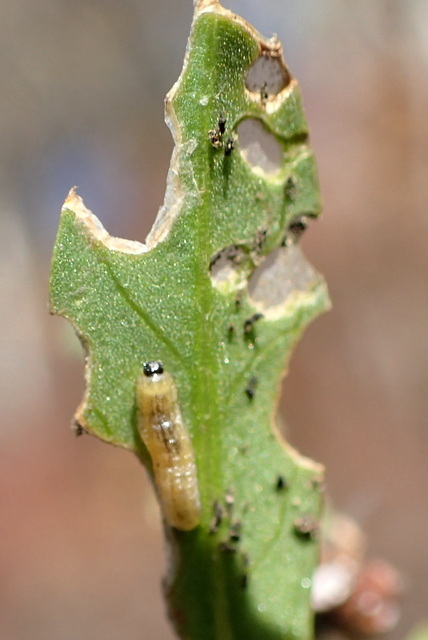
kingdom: Animalia
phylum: Arthropoda
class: Insecta
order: Coleoptera
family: Chrysomelidae
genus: Agasicles
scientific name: Agasicles hygrophila
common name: Alligatorweed flea beetle
